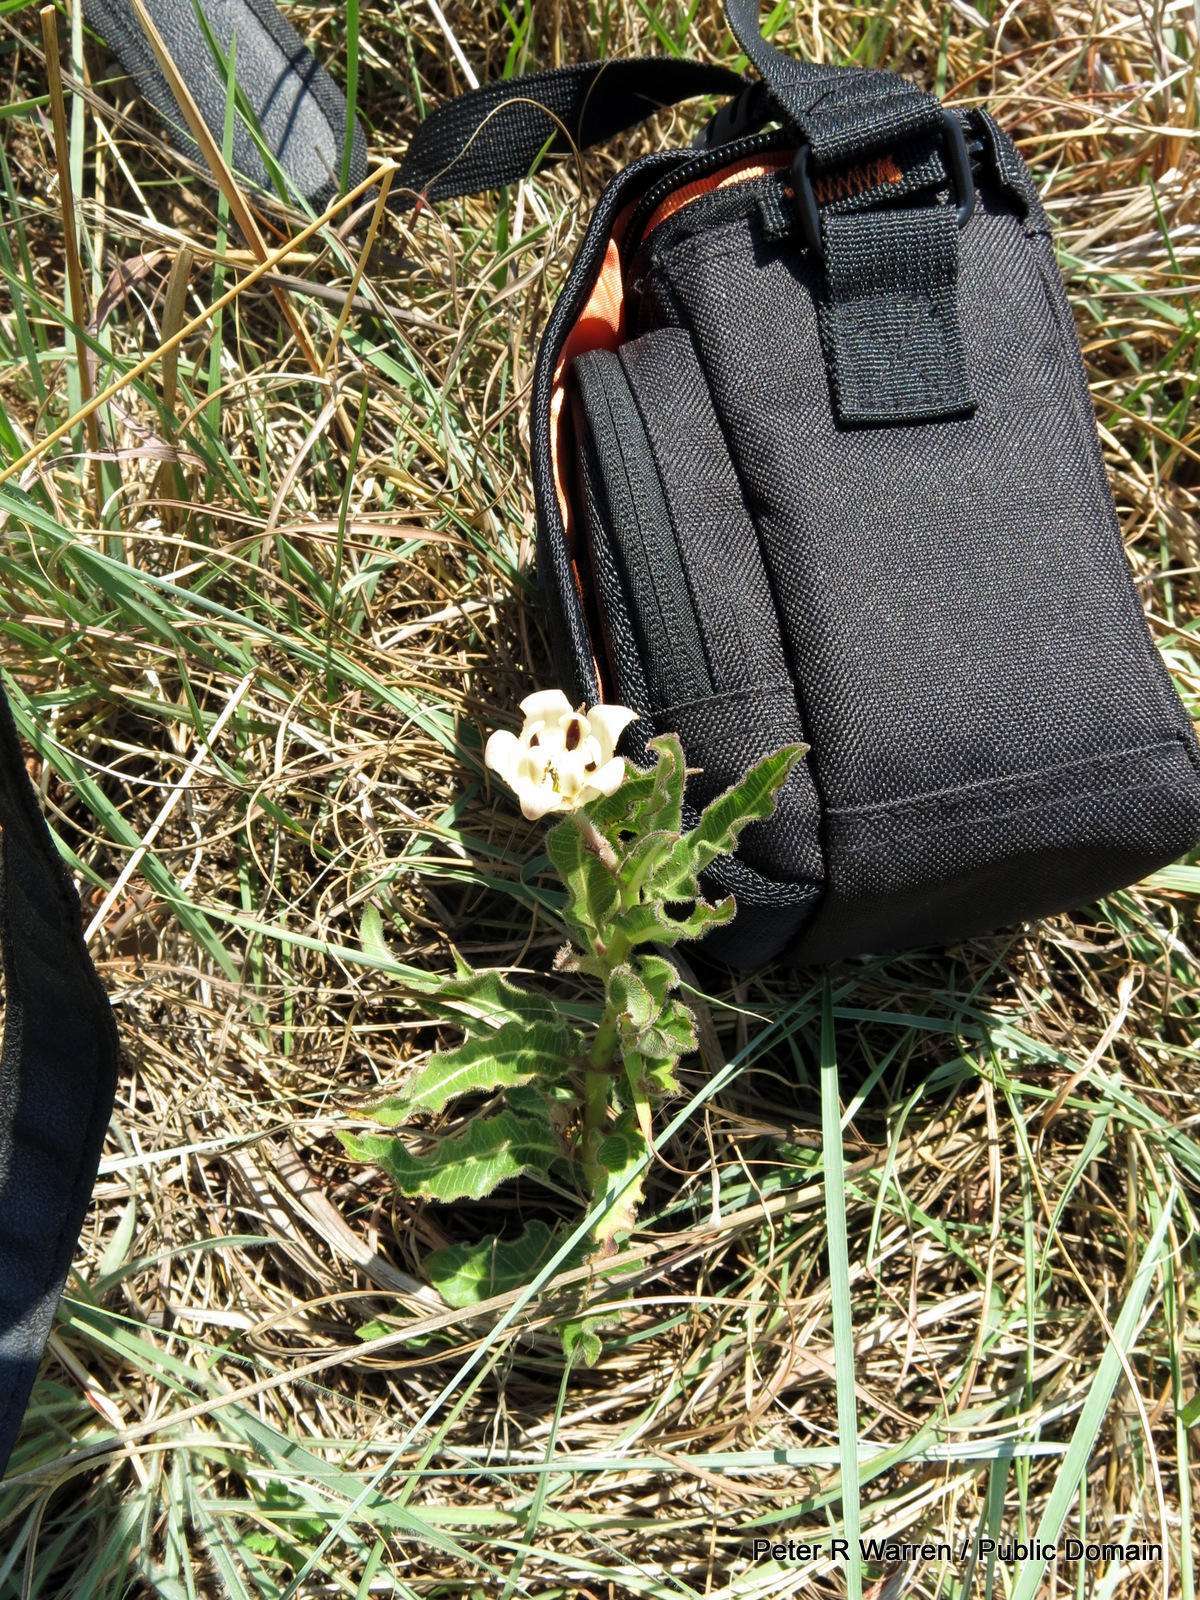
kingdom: Plantae
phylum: Tracheophyta
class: Magnoliopsida
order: Gentianales
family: Apocynaceae
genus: Pachycarpus
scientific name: Pachycarpus schinzianus
